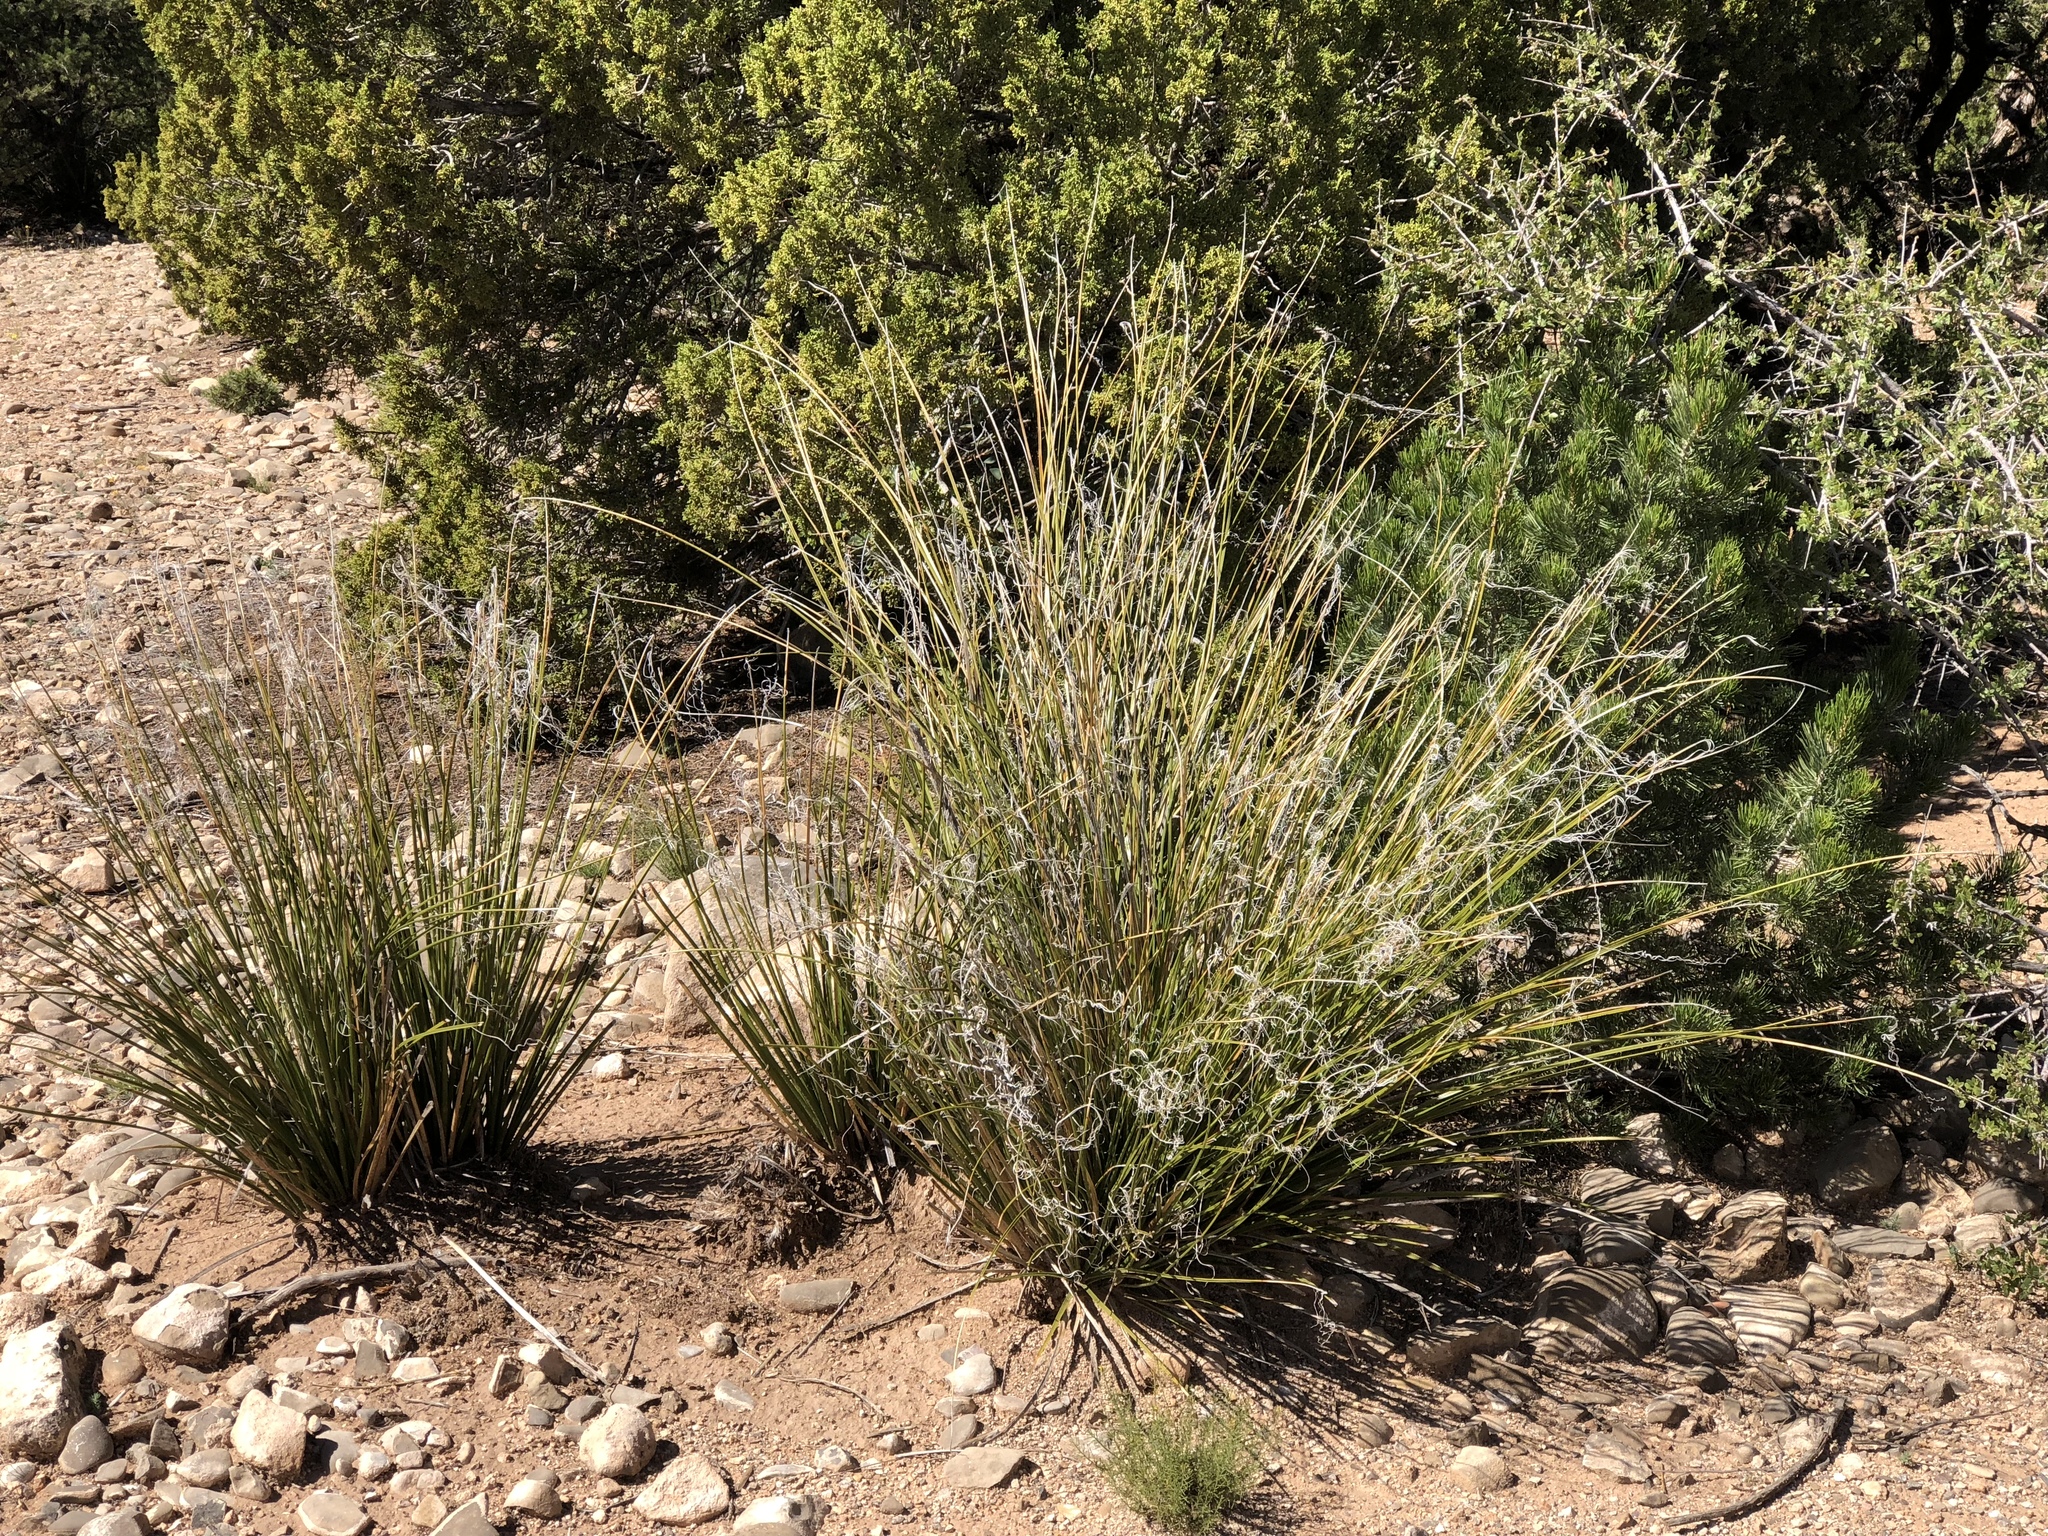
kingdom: Plantae
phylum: Tracheophyta
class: Liliopsida
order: Asparagales
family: Asparagaceae
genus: Nolina
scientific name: Nolina microcarpa
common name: Bear-grass
